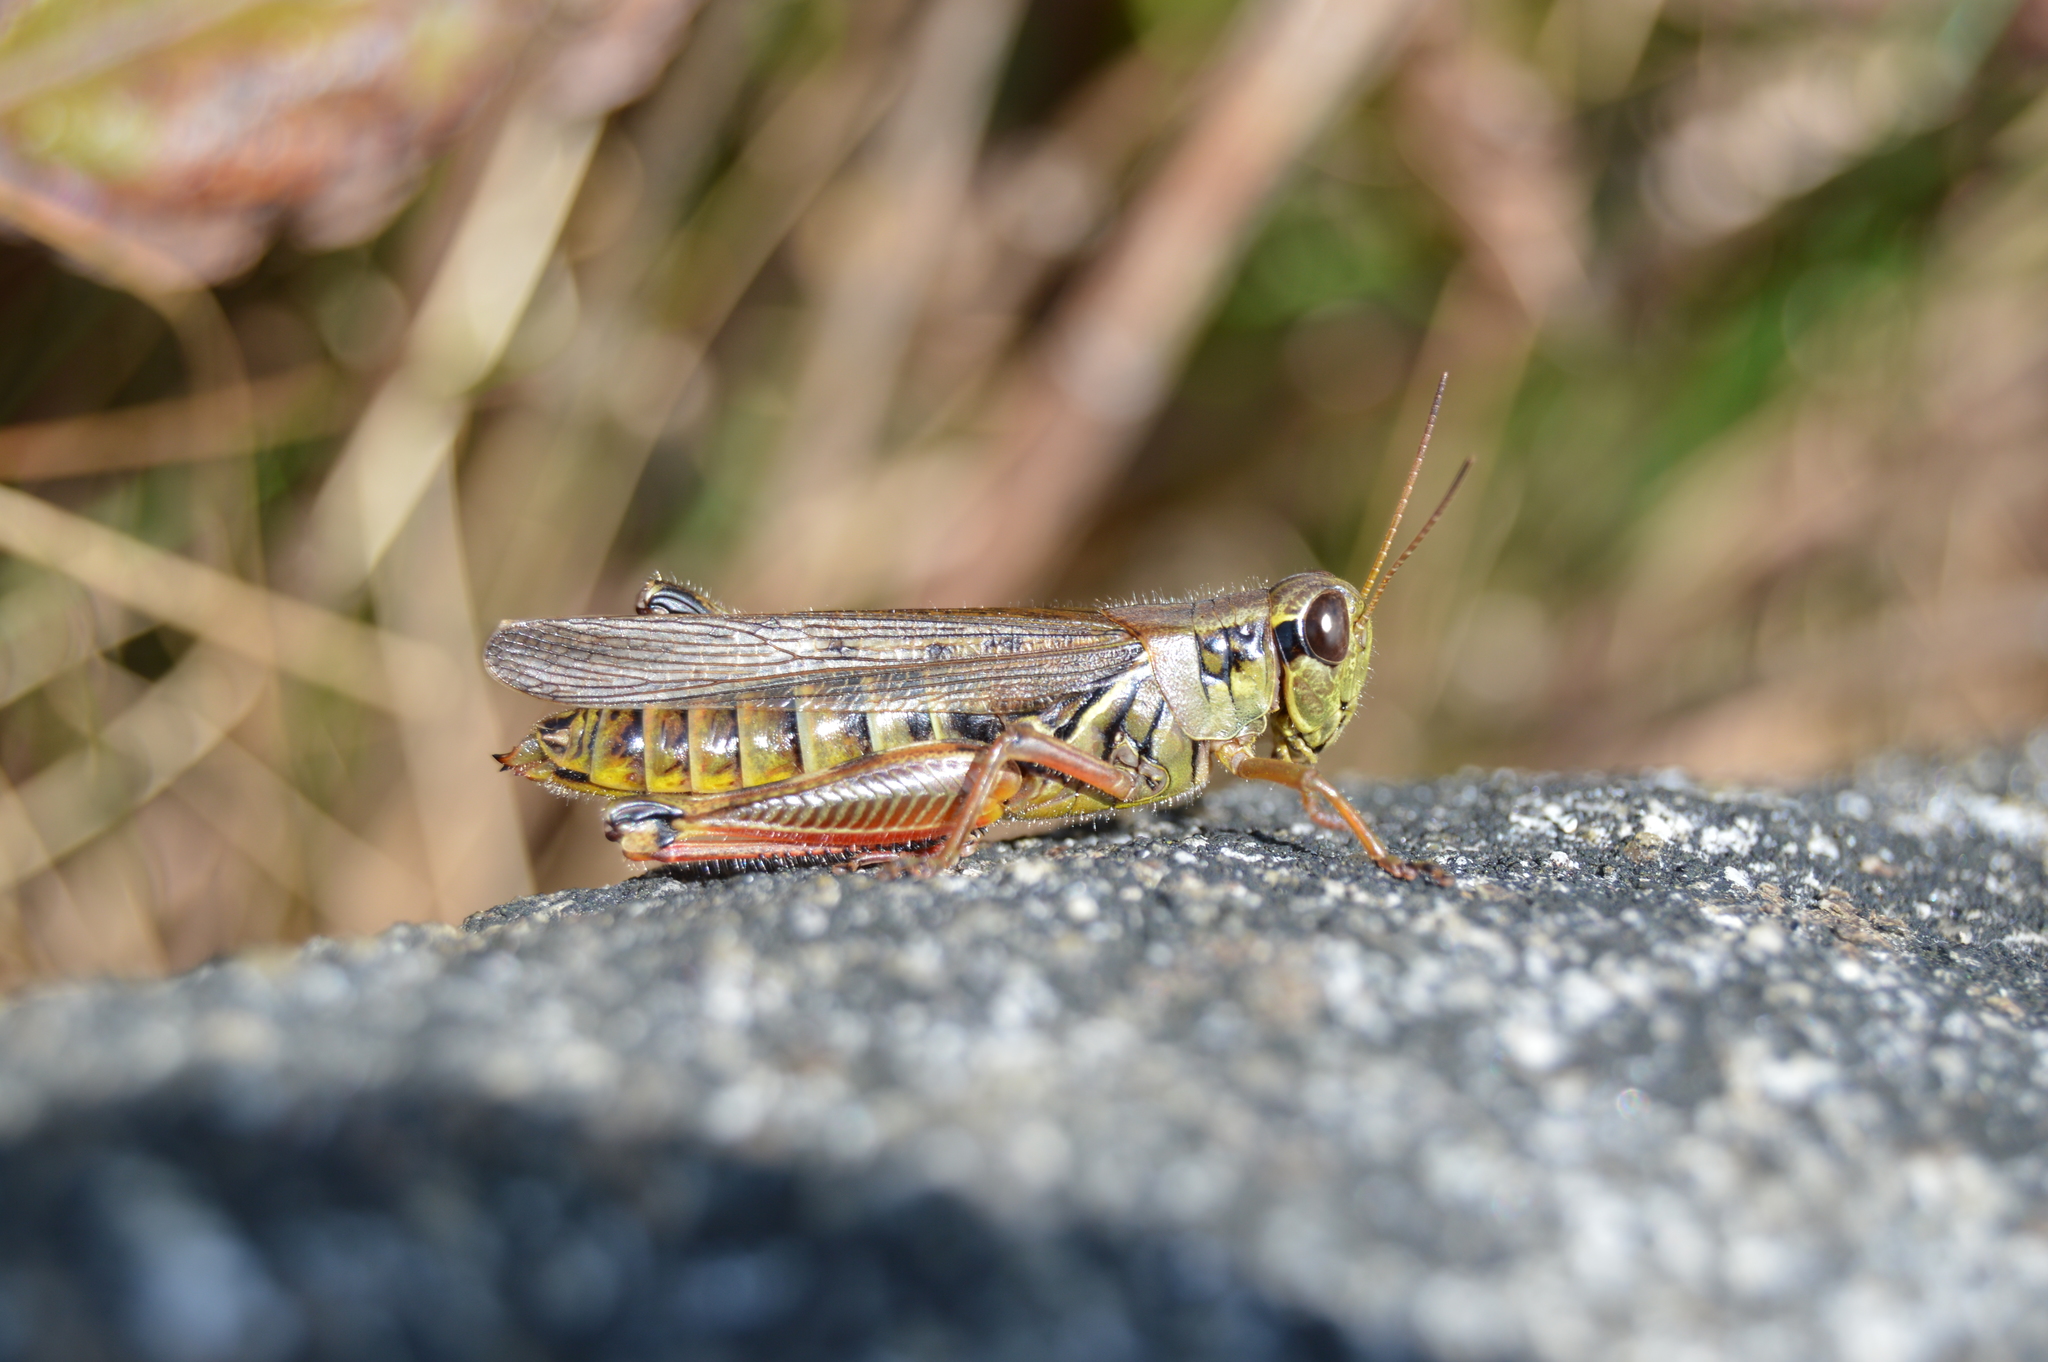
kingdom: Animalia
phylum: Arthropoda
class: Insecta
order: Orthoptera
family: Acrididae
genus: Melanoplus
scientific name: Melanoplus
